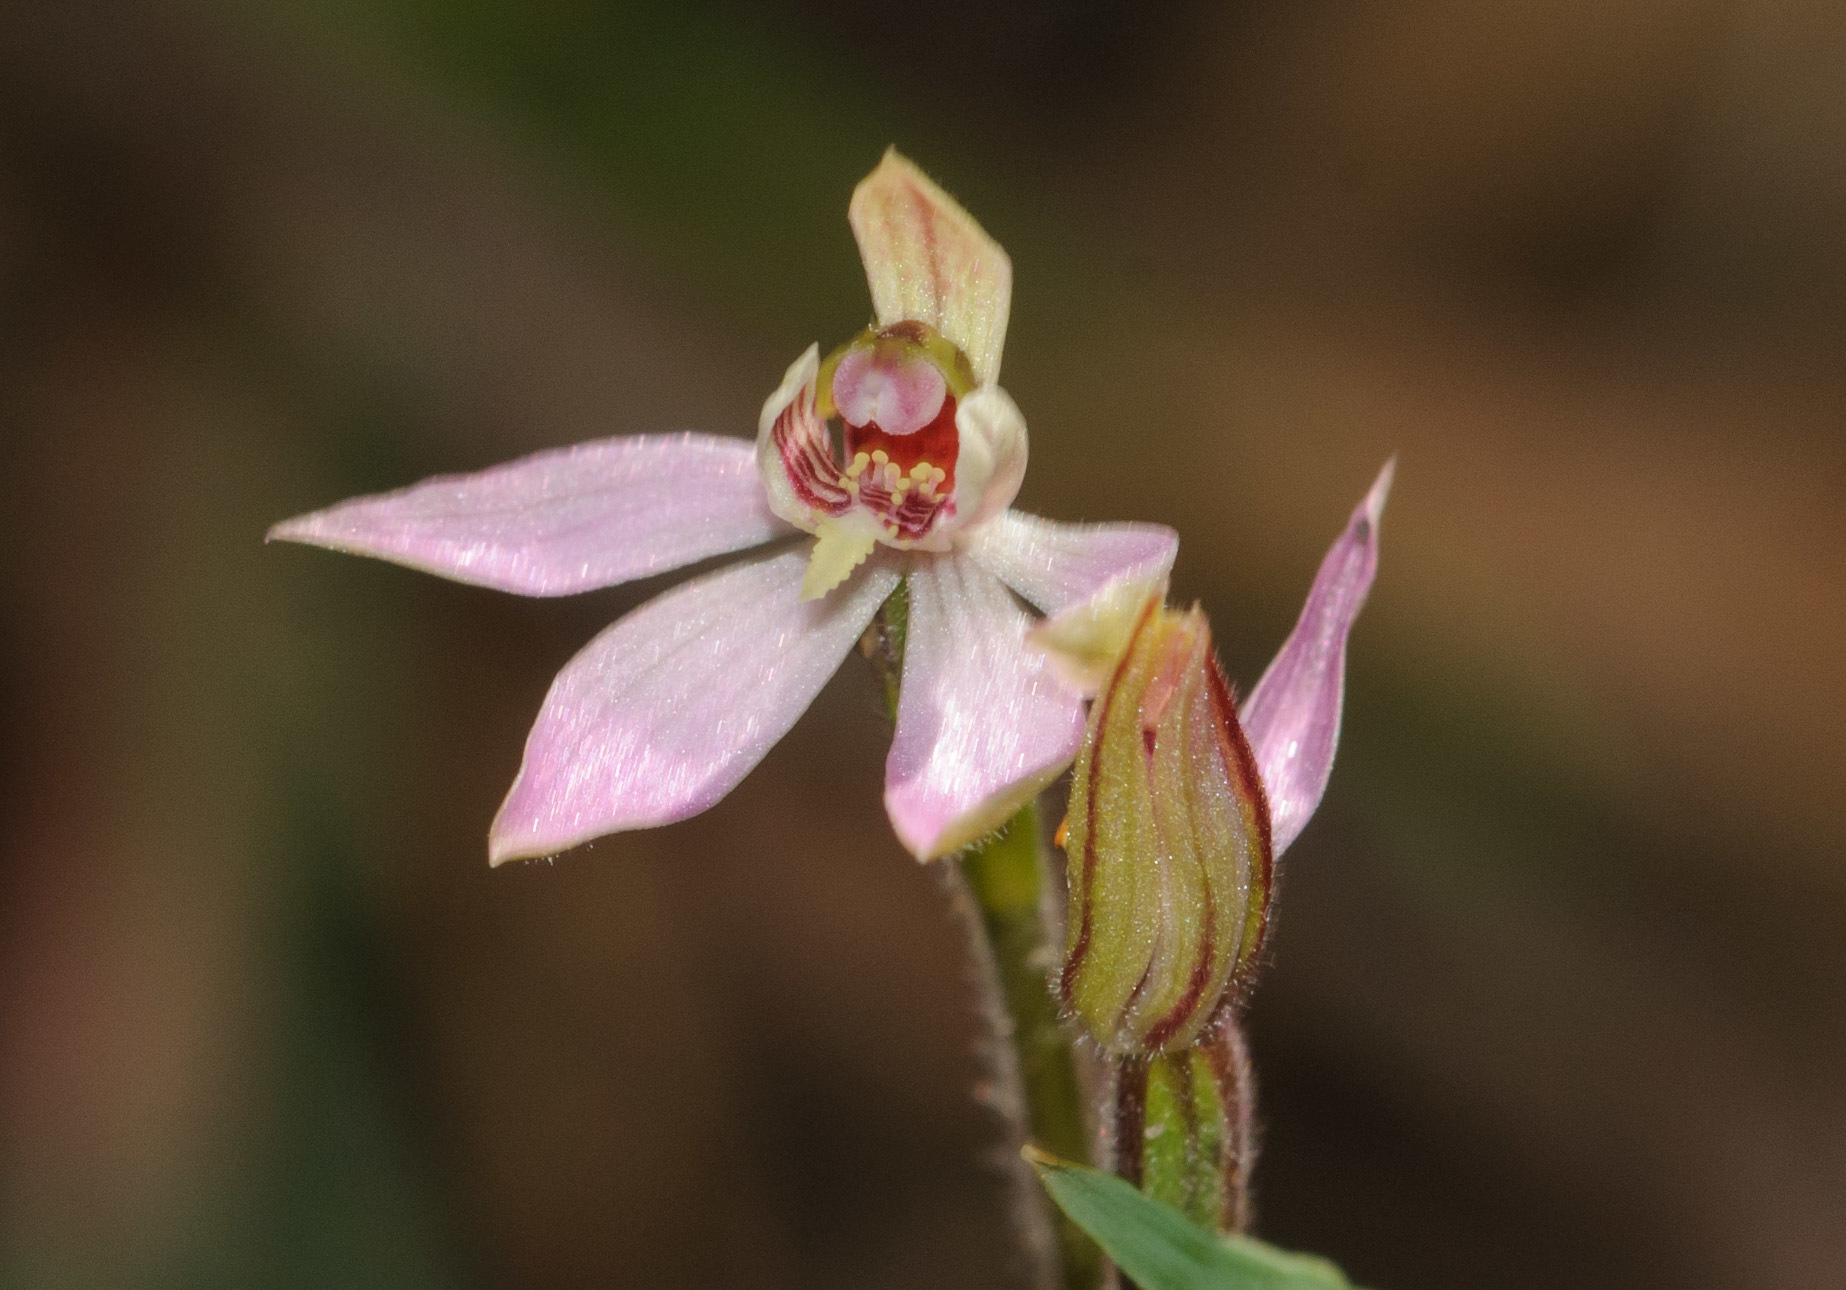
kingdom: Plantae
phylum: Tracheophyta
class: Liliopsida
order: Asparagales
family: Orchidaceae
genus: Caladenia
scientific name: Caladenia mentiens
